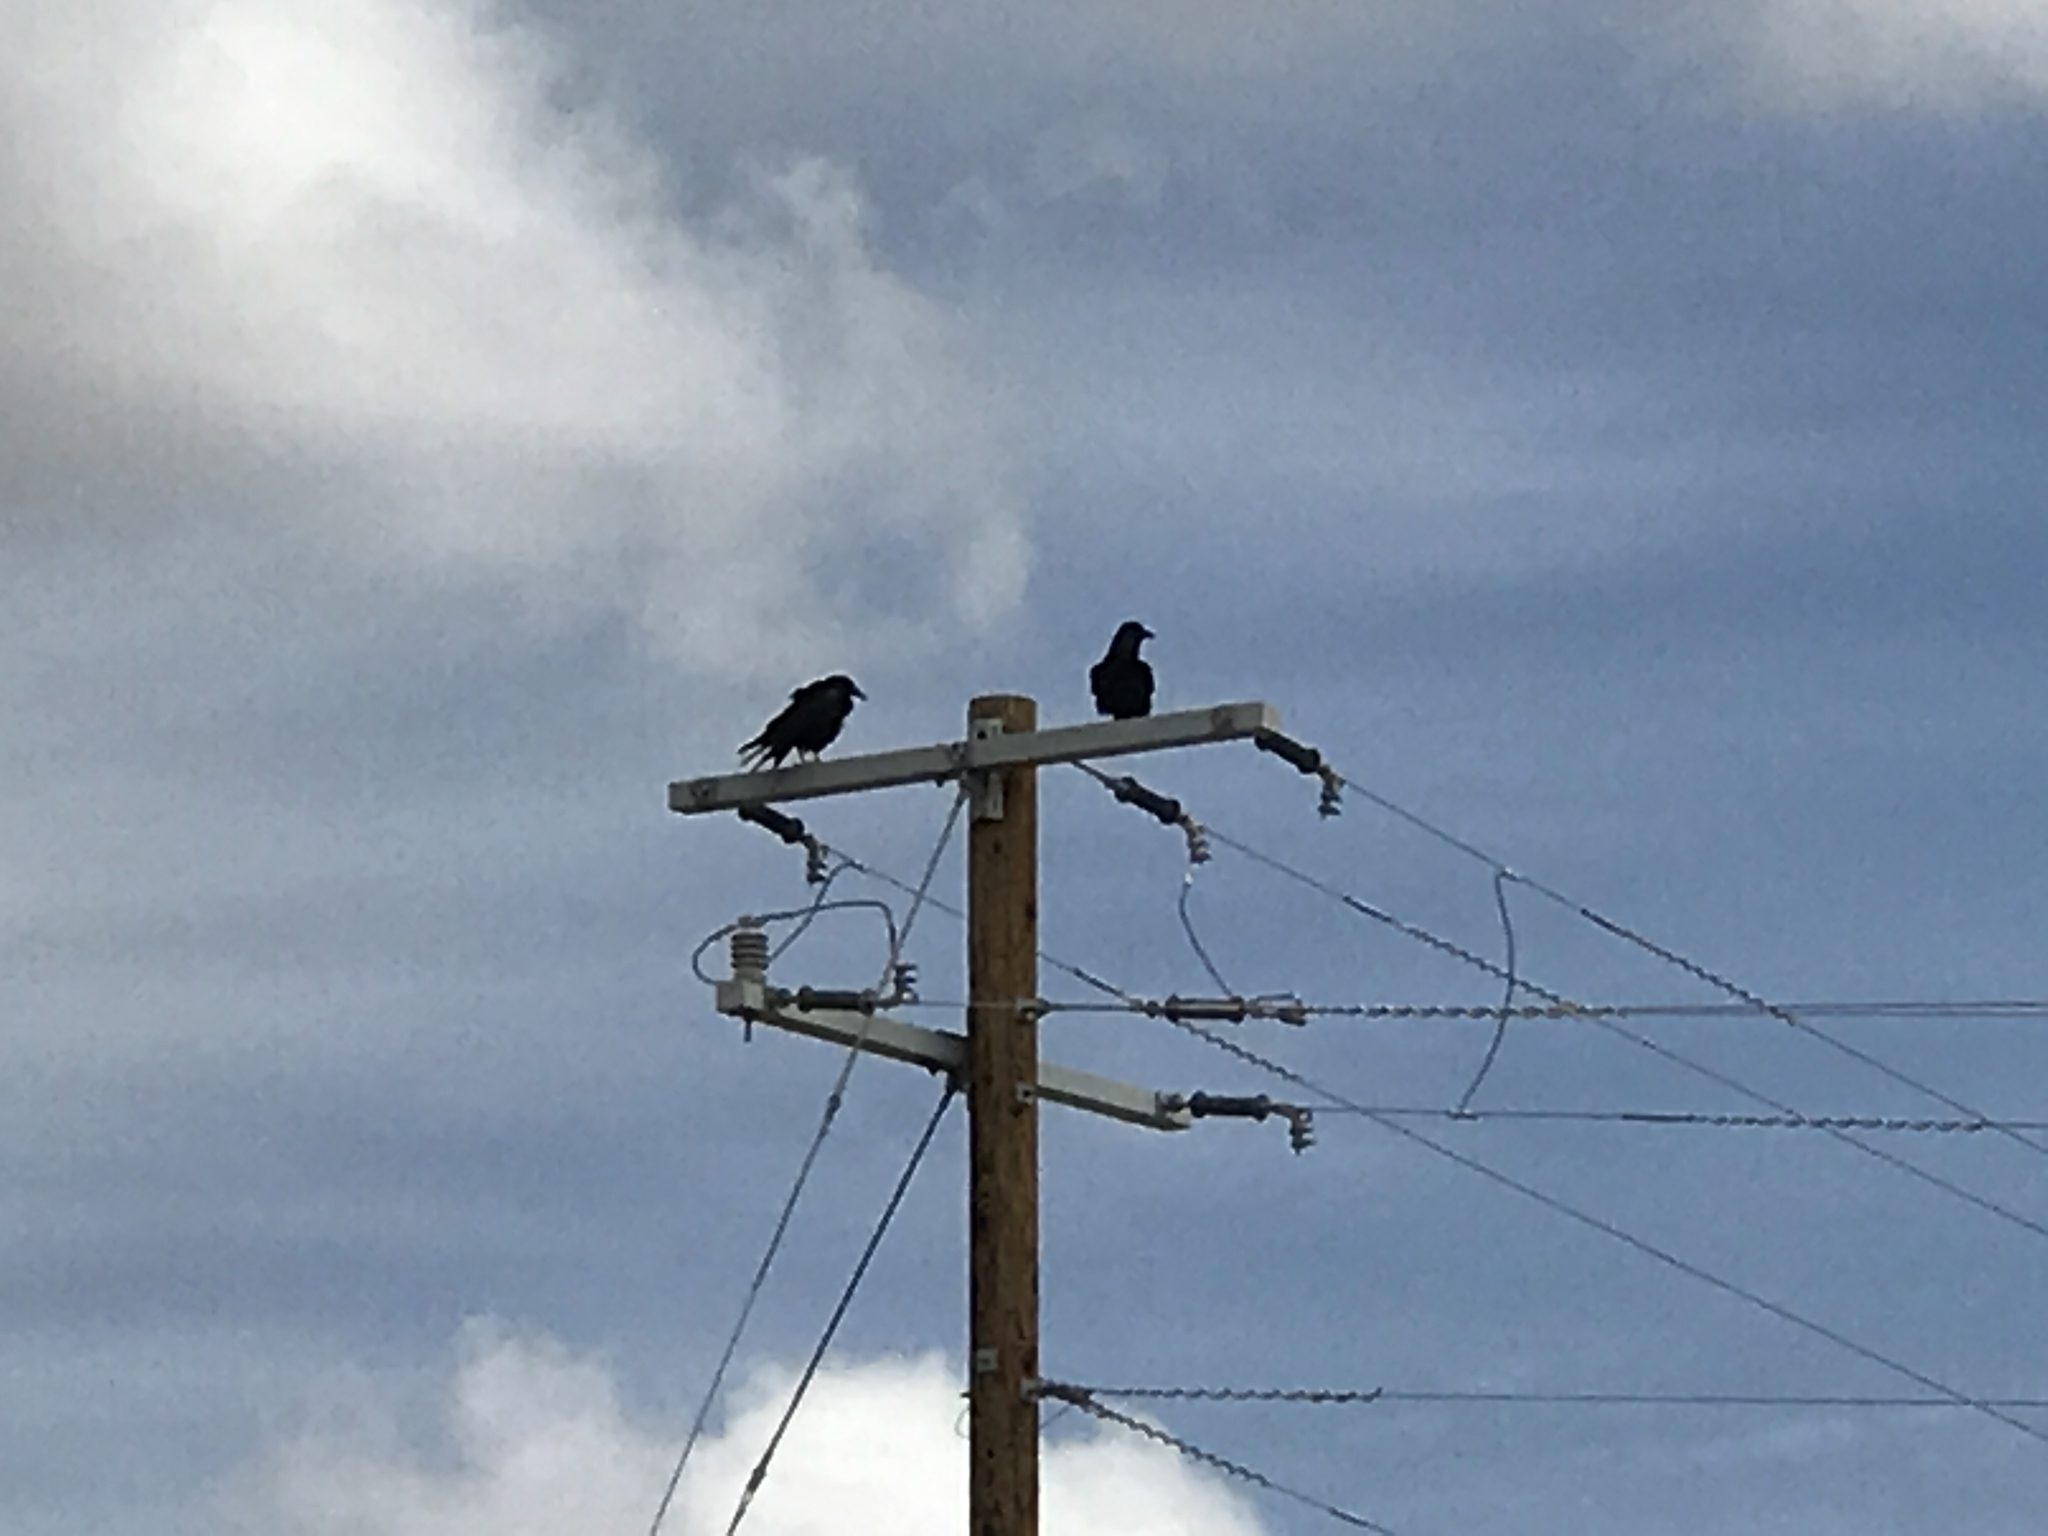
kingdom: Animalia
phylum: Chordata
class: Aves
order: Passeriformes
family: Corvidae
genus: Corvus
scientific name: Corvus corax
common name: Common raven
